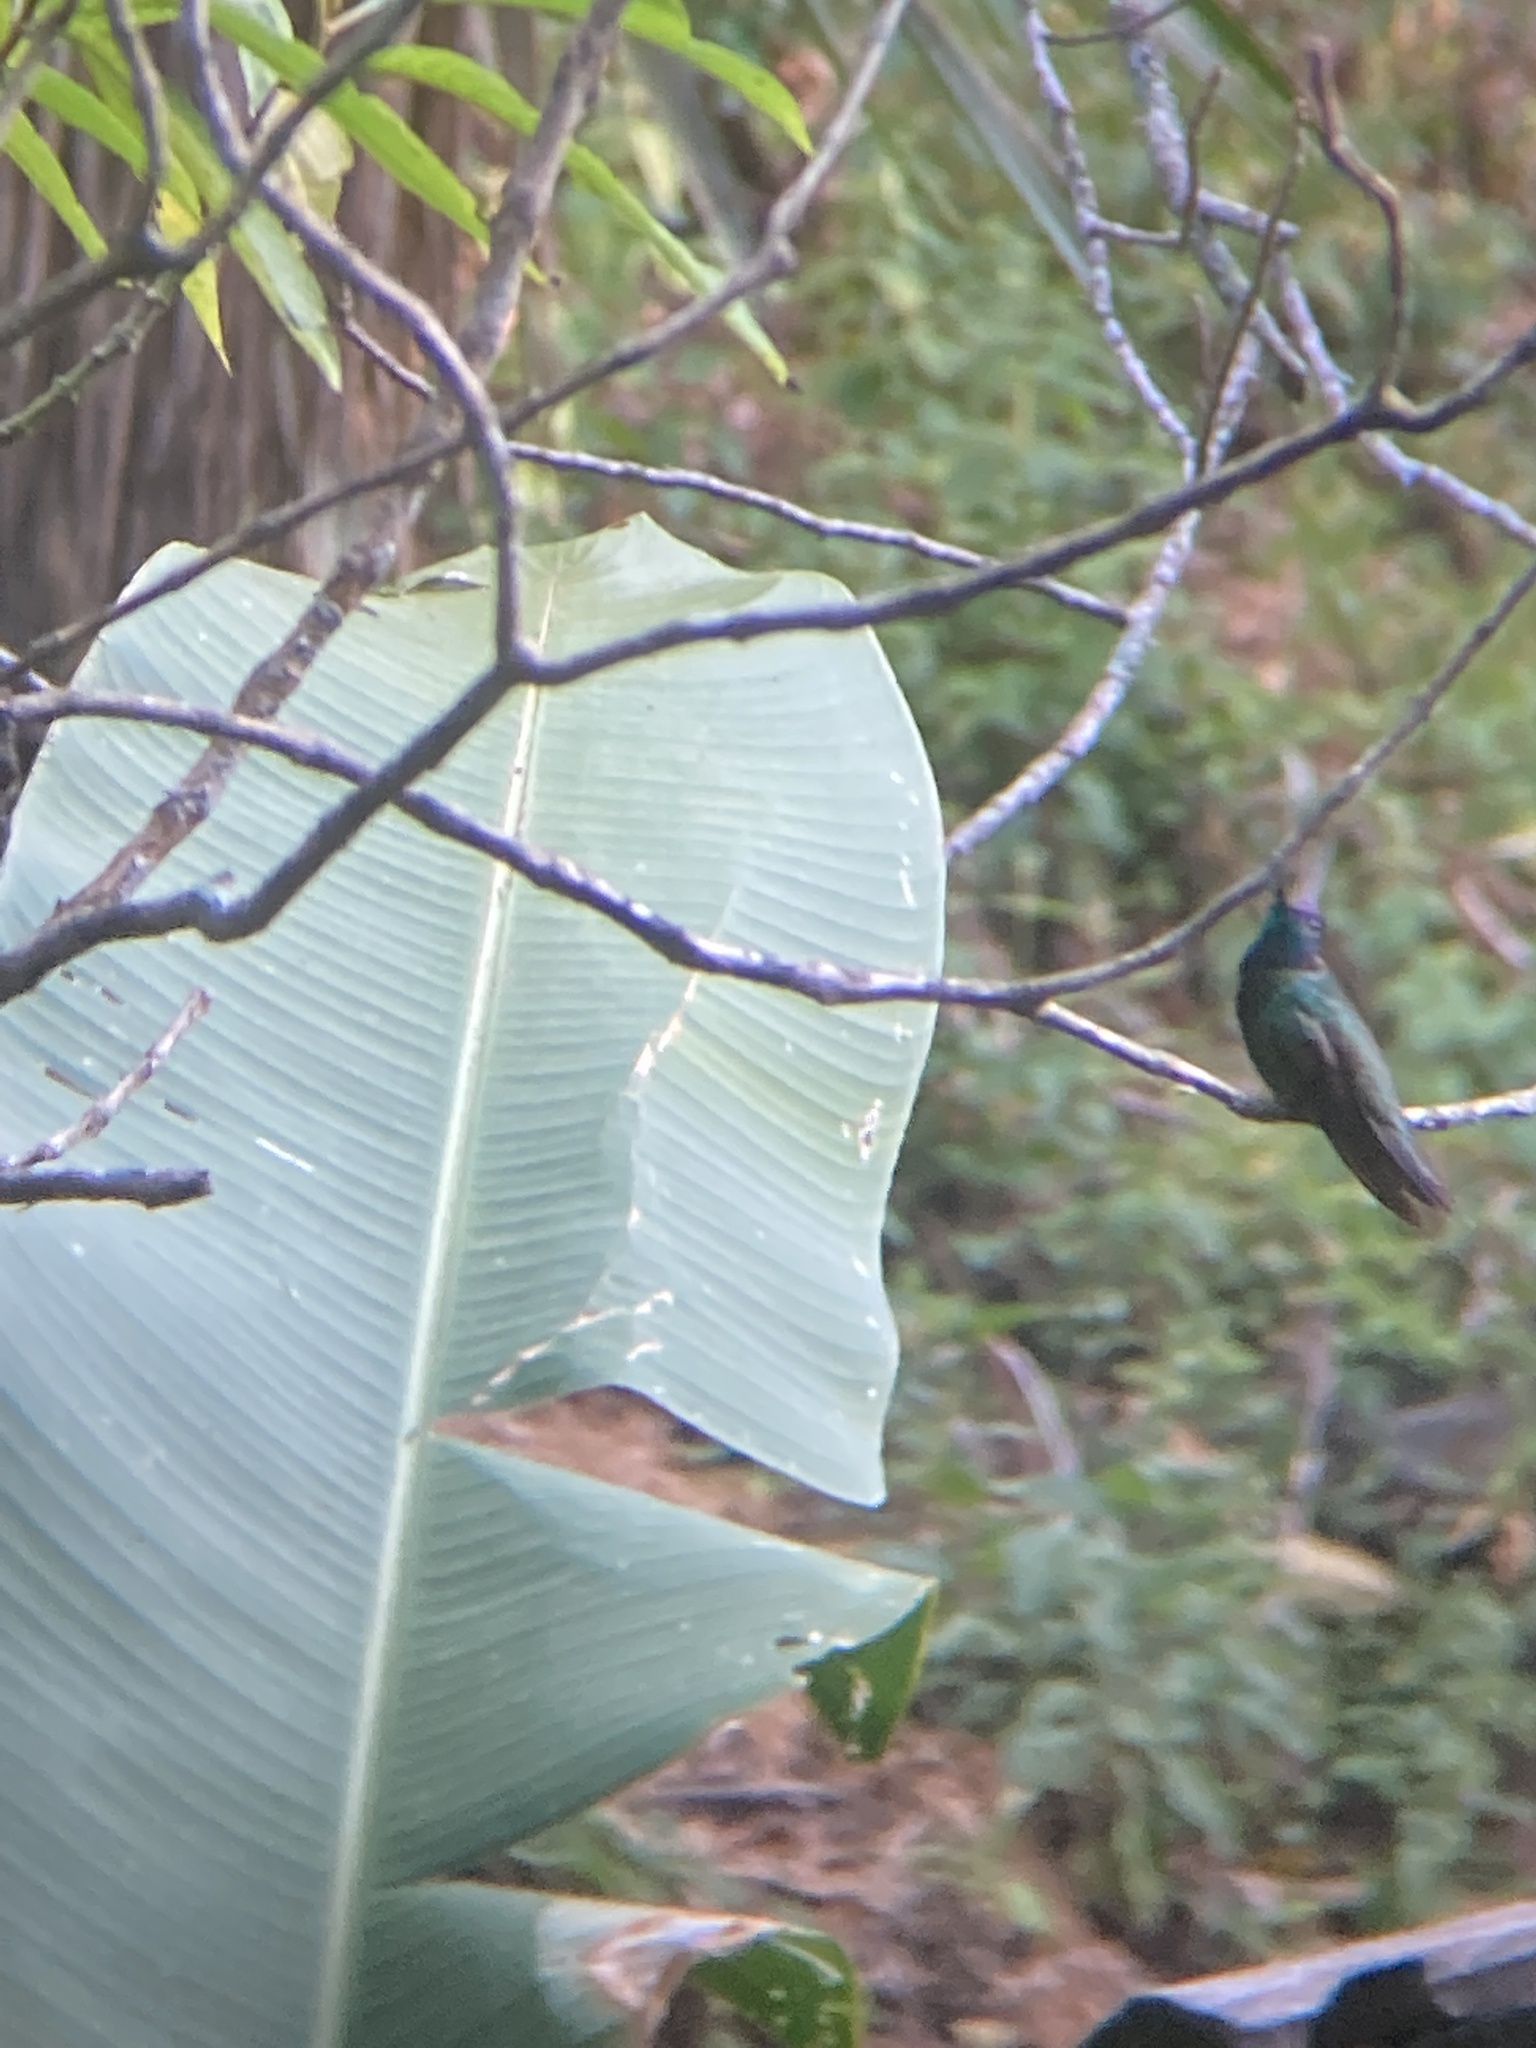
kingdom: Animalia
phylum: Chordata
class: Aves
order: Apodiformes
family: Trochilidae
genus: Eugenes
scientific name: Eugenes fulgens
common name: Magnificent hummingbird
